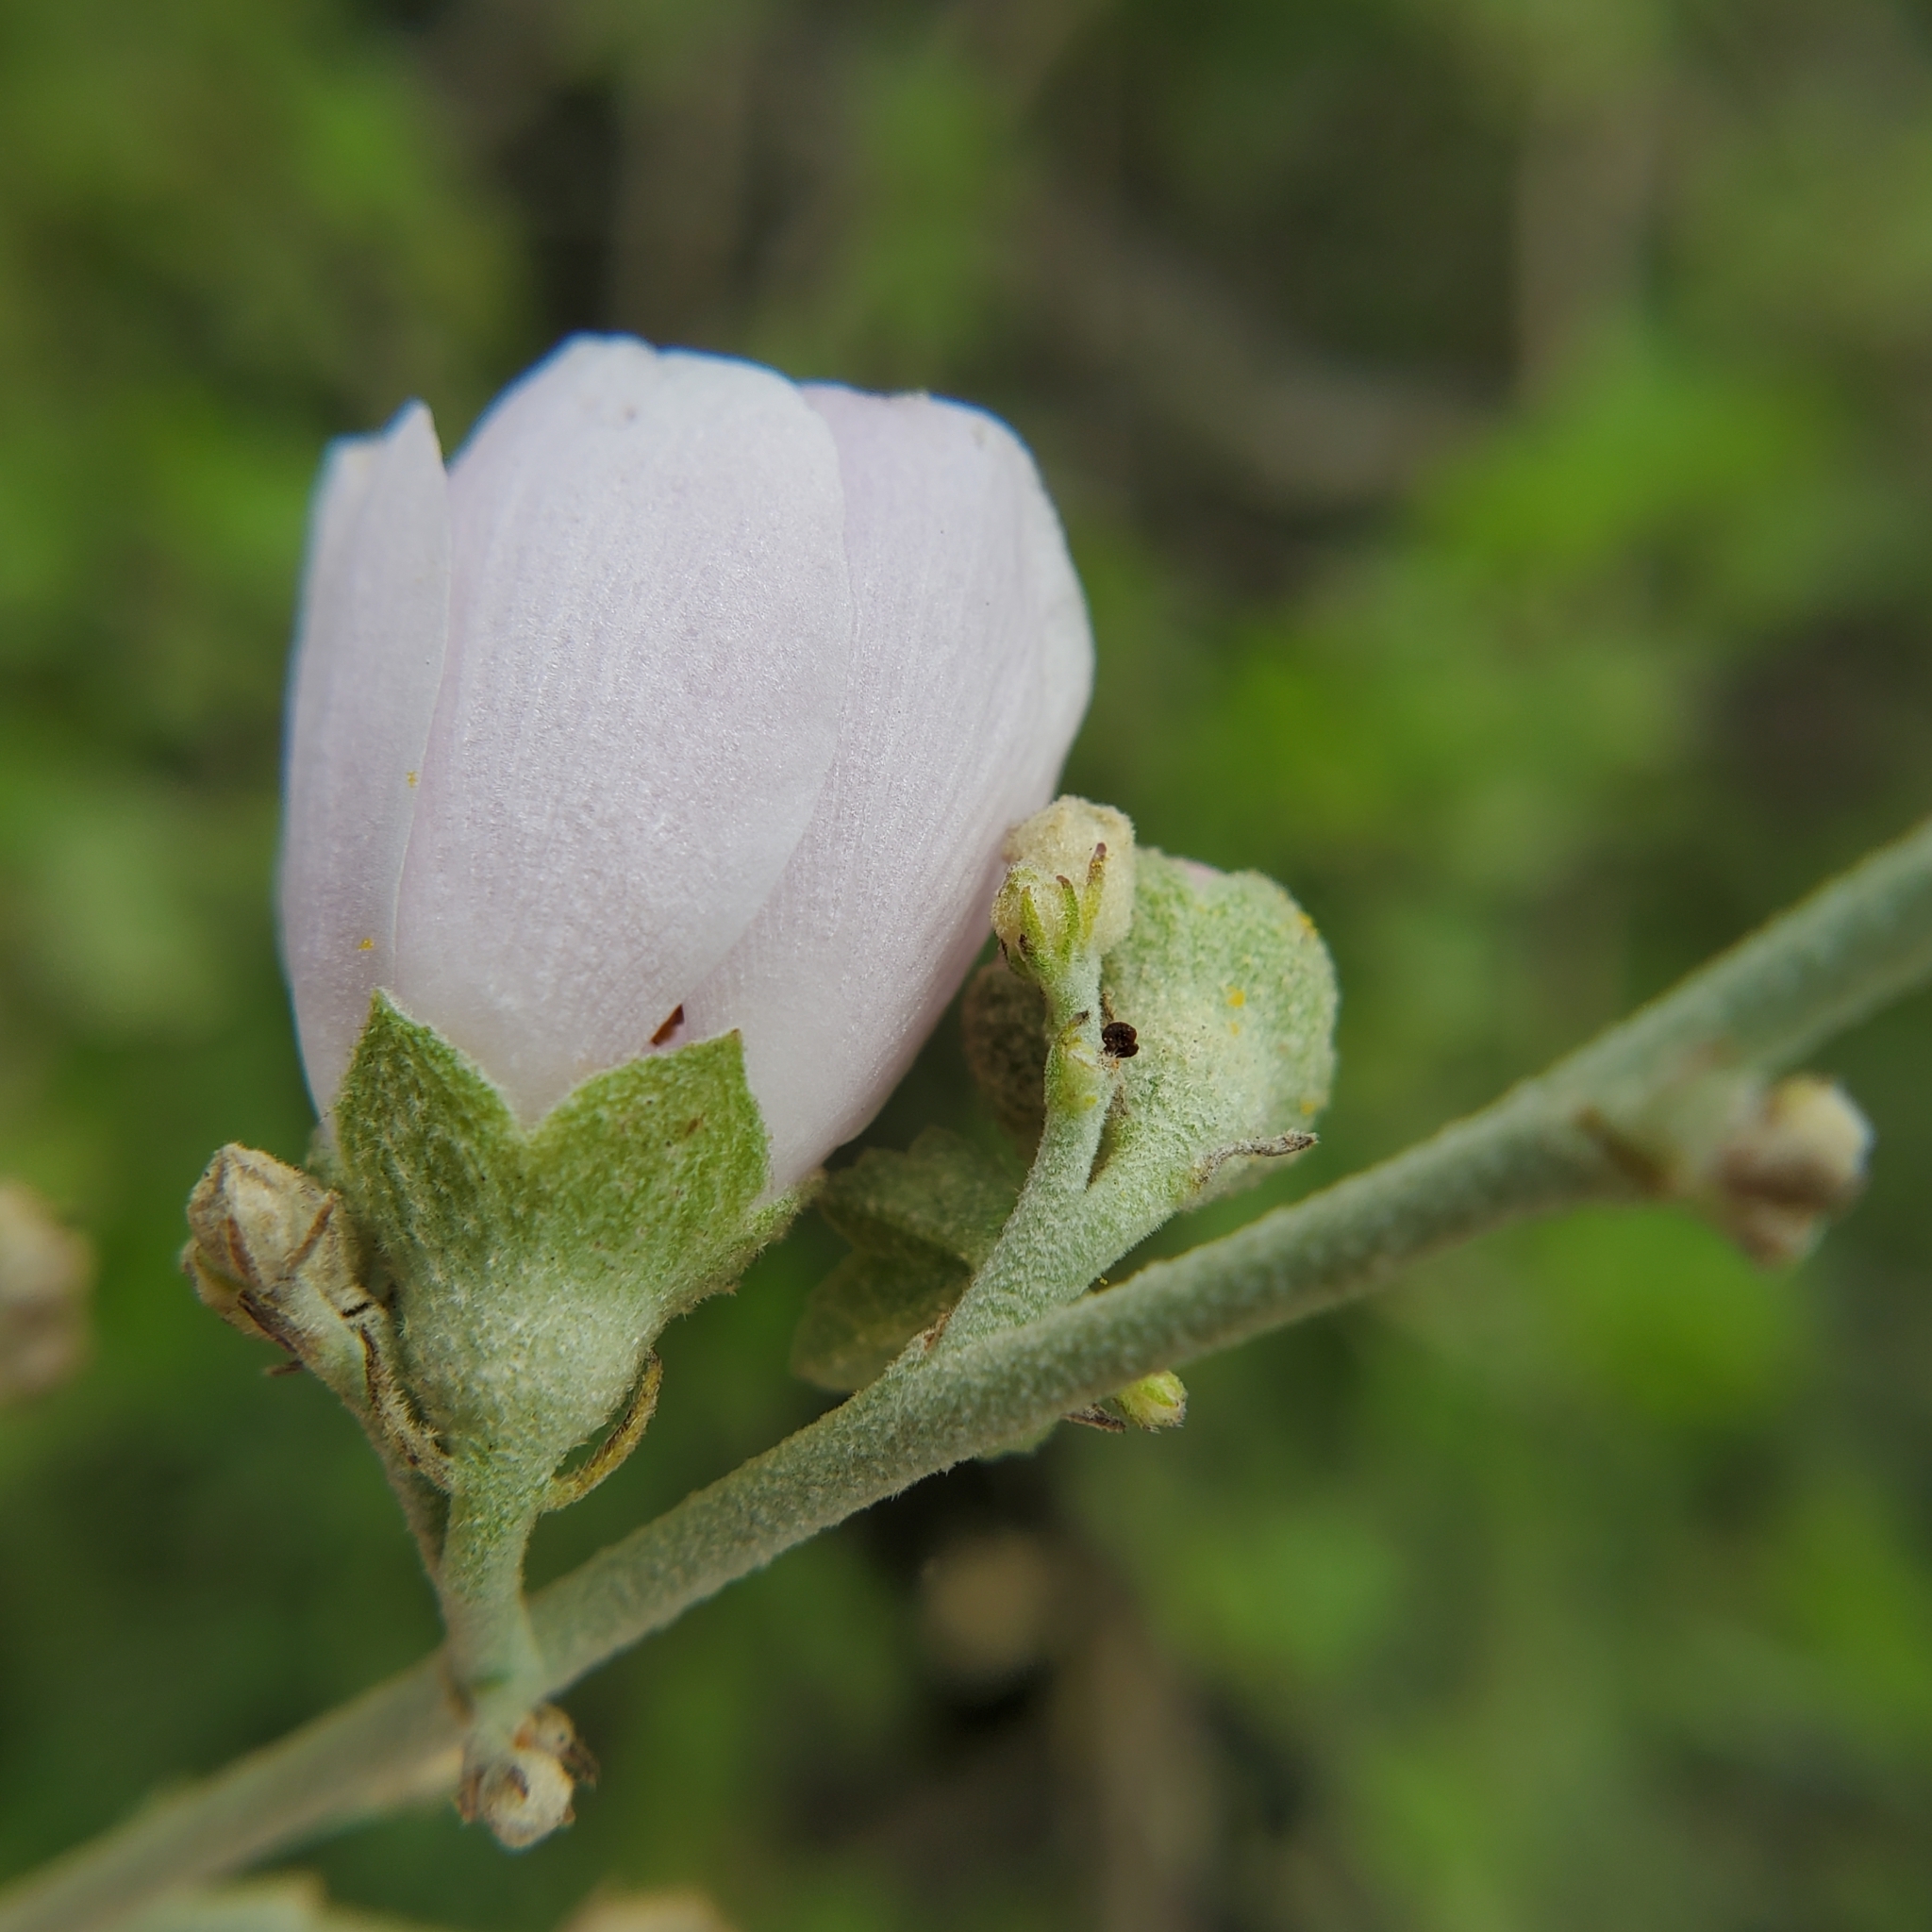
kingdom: Plantae
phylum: Tracheophyta
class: Magnoliopsida
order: Malvales
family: Malvaceae
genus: Malacothamnus
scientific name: Malacothamnus fasciculatus
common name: Sant cruz island bush-mallow
